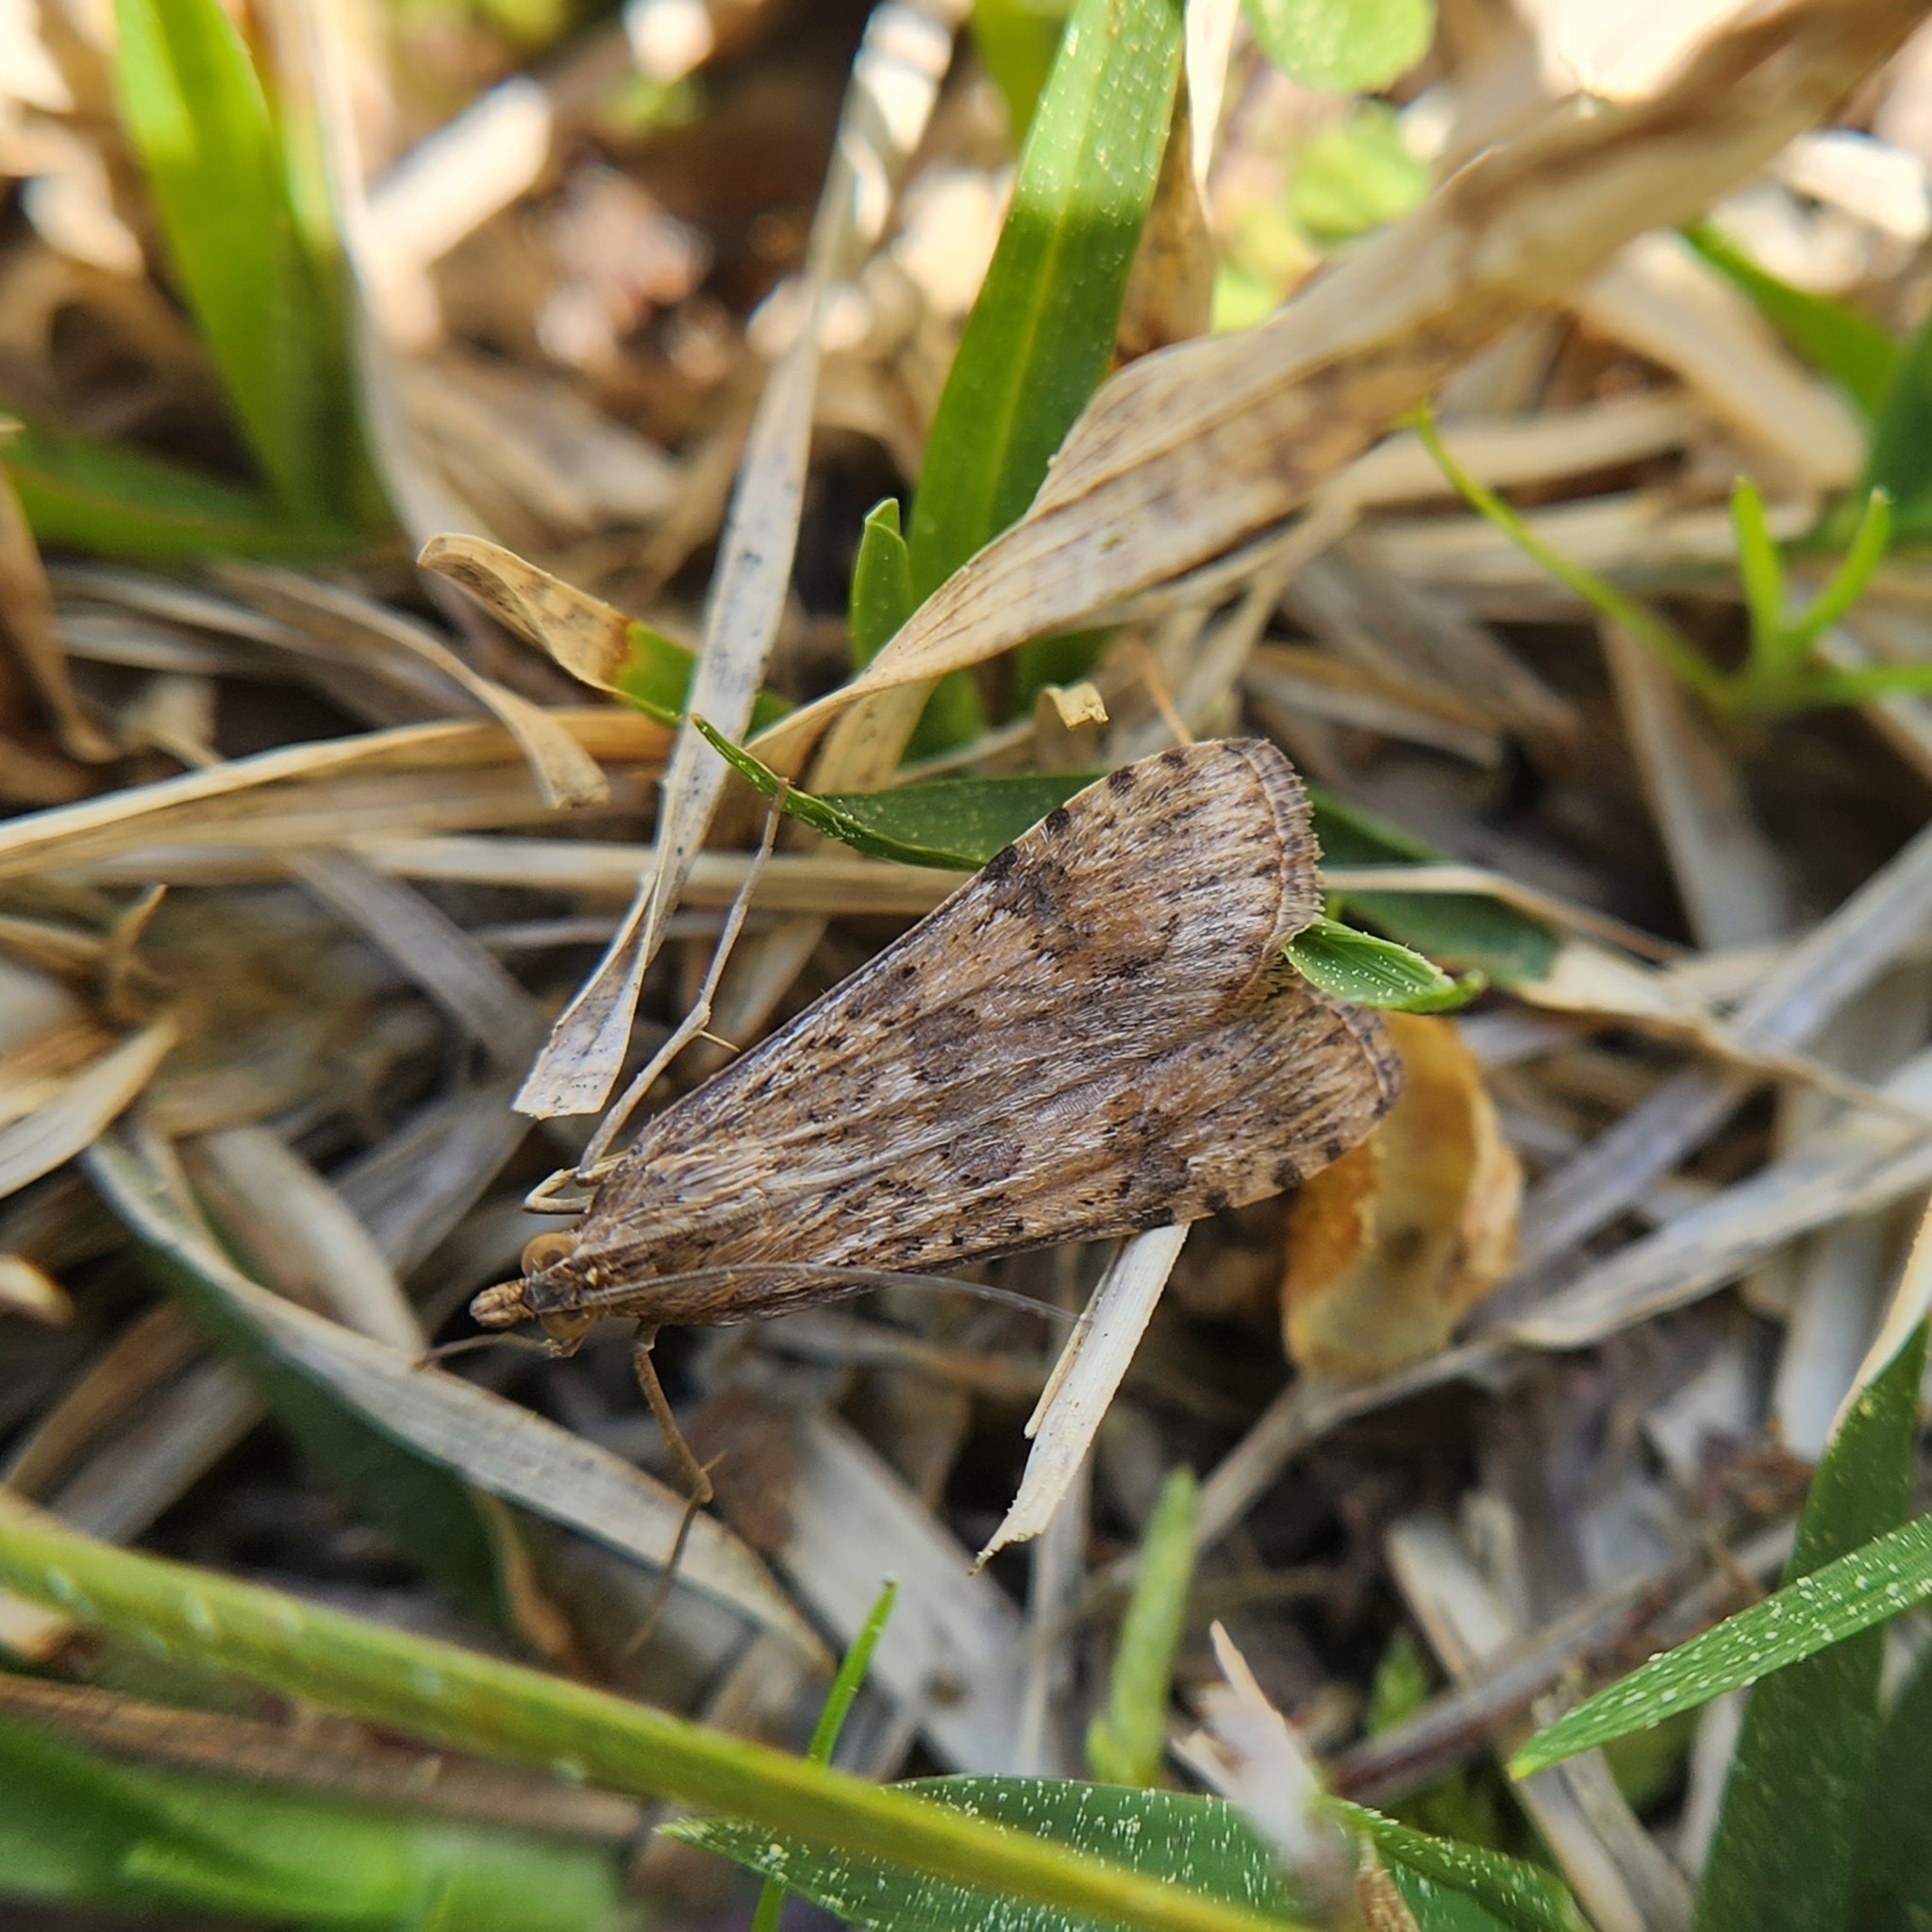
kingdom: Animalia
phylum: Arthropoda
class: Insecta
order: Lepidoptera
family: Crambidae
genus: Nomophila
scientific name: Nomophila nearctica
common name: American rush veneer
